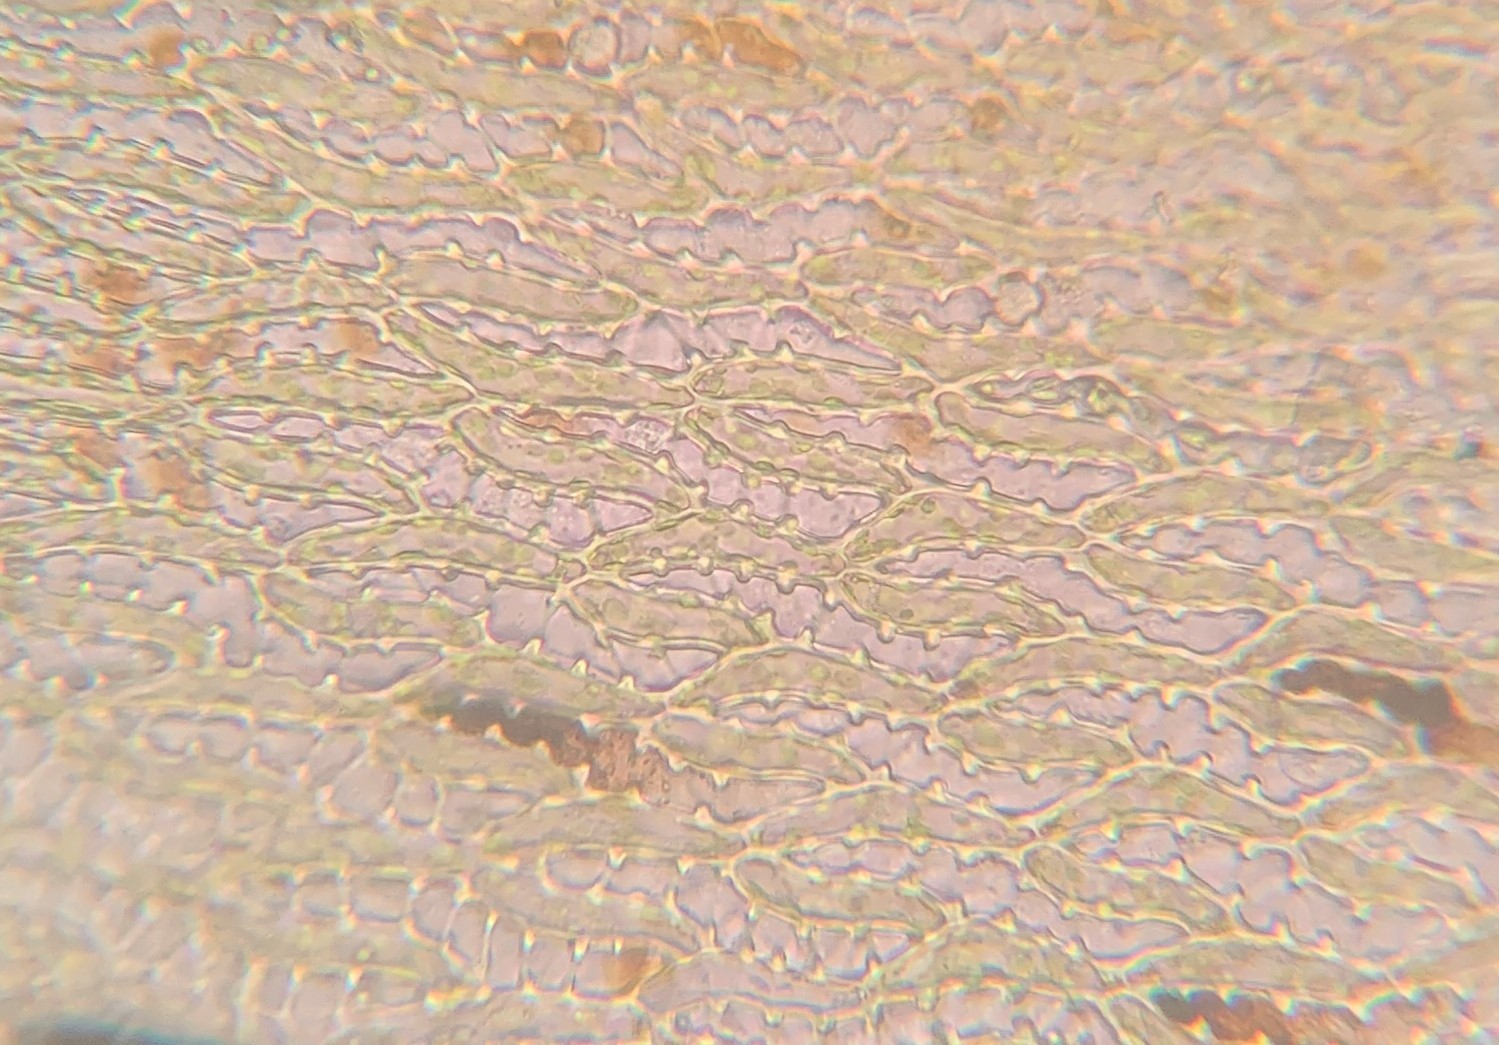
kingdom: Plantae
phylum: Bryophyta
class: Sphagnopsida
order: Sphagnales
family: Sphagnaceae
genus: Sphagnum
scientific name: Sphagnum missouricum
